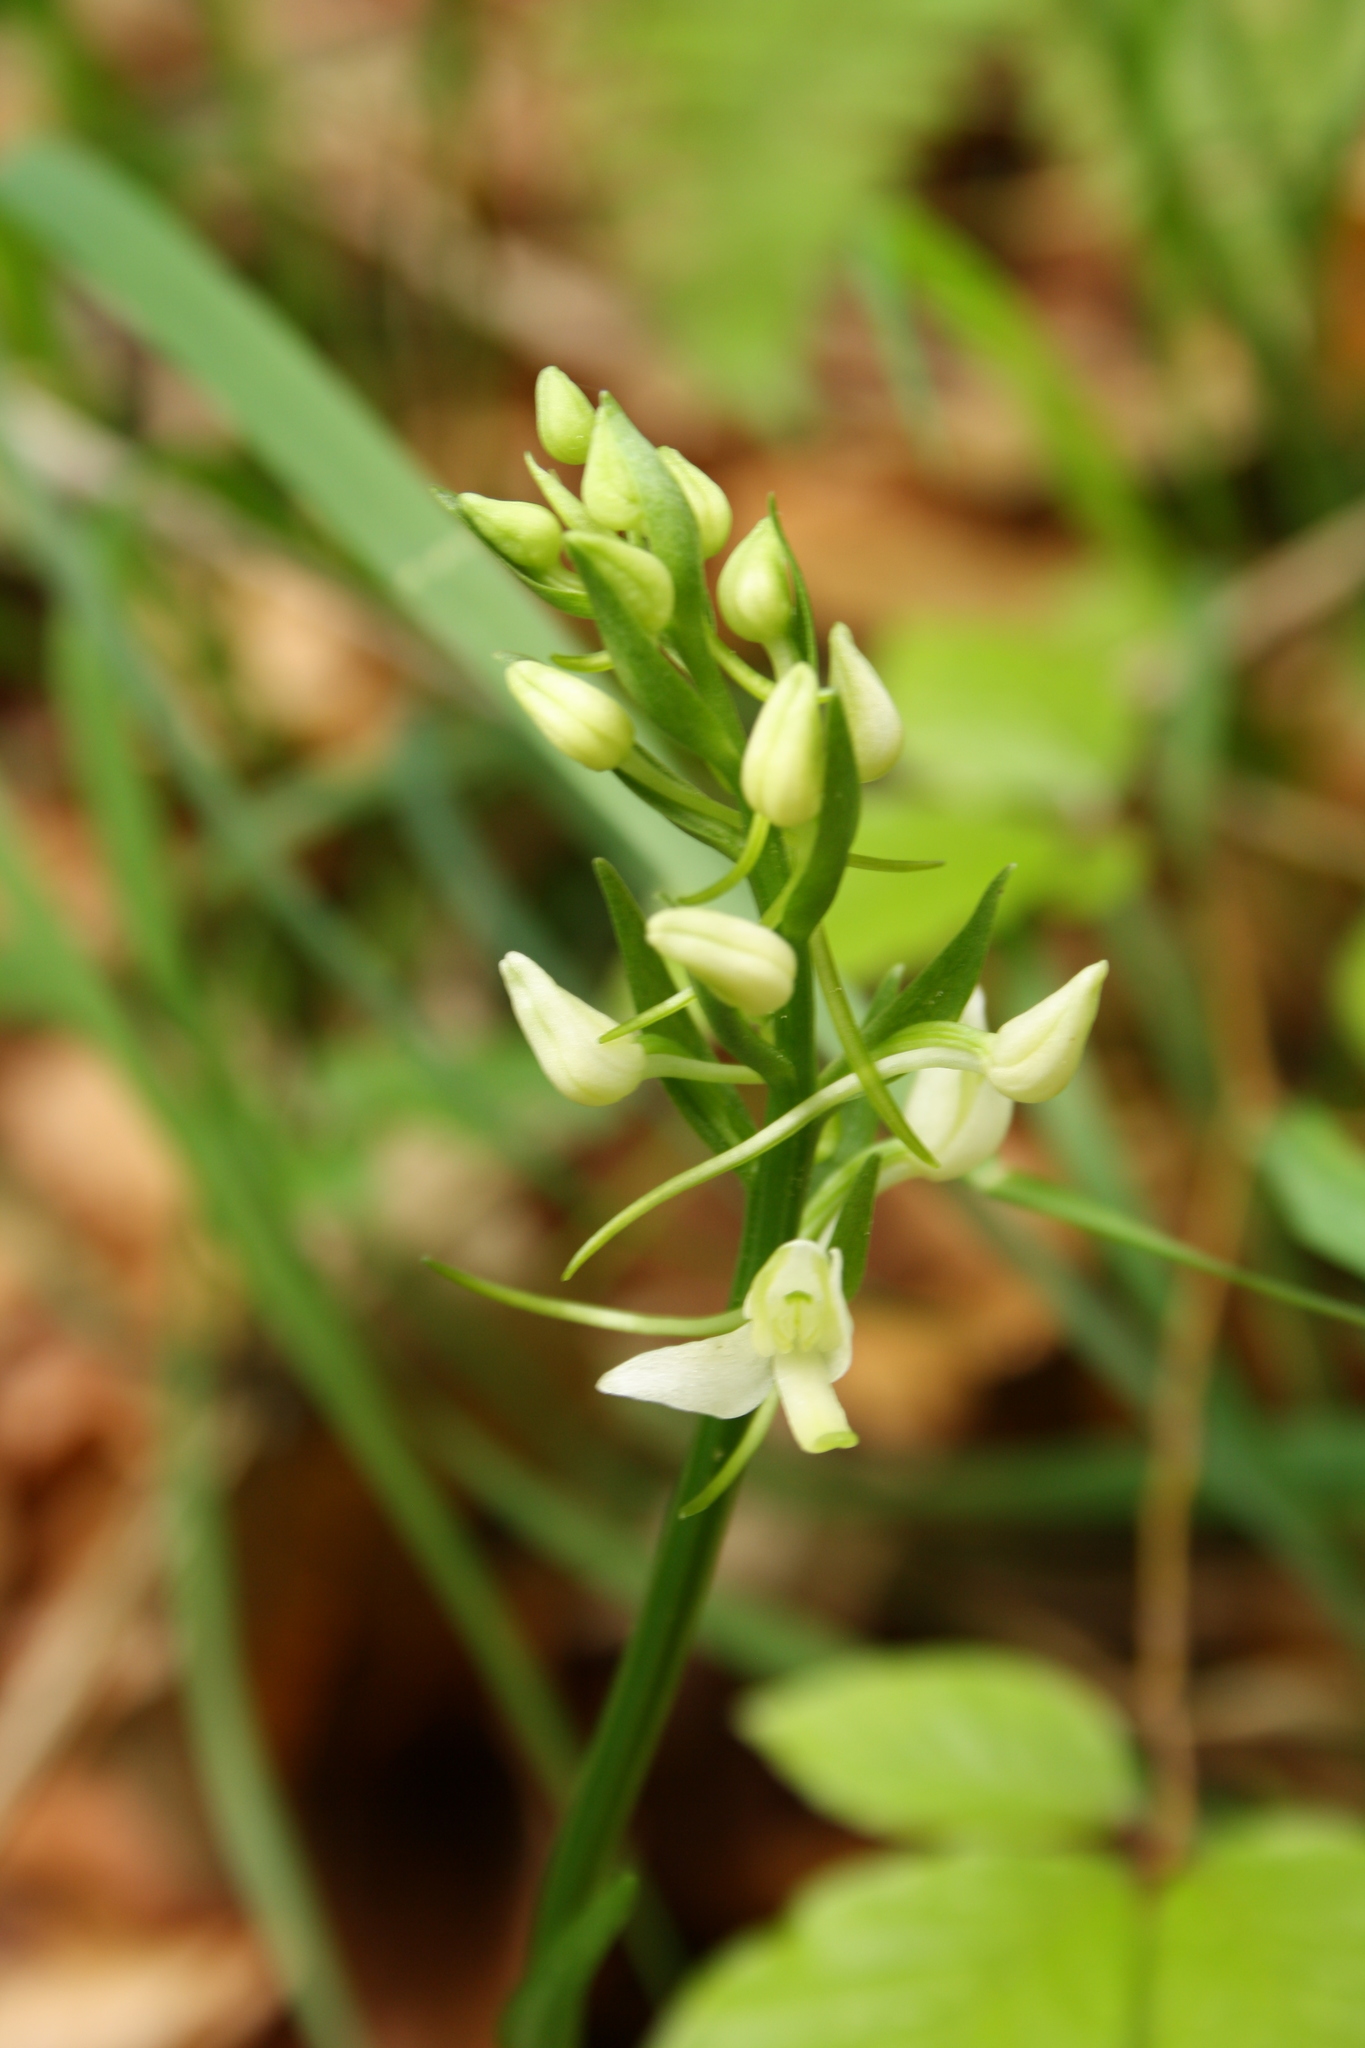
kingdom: Plantae
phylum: Tracheophyta
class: Liliopsida
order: Asparagales
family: Orchidaceae
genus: Platanthera
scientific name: Platanthera bifolia
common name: Lesser butterfly-orchid
